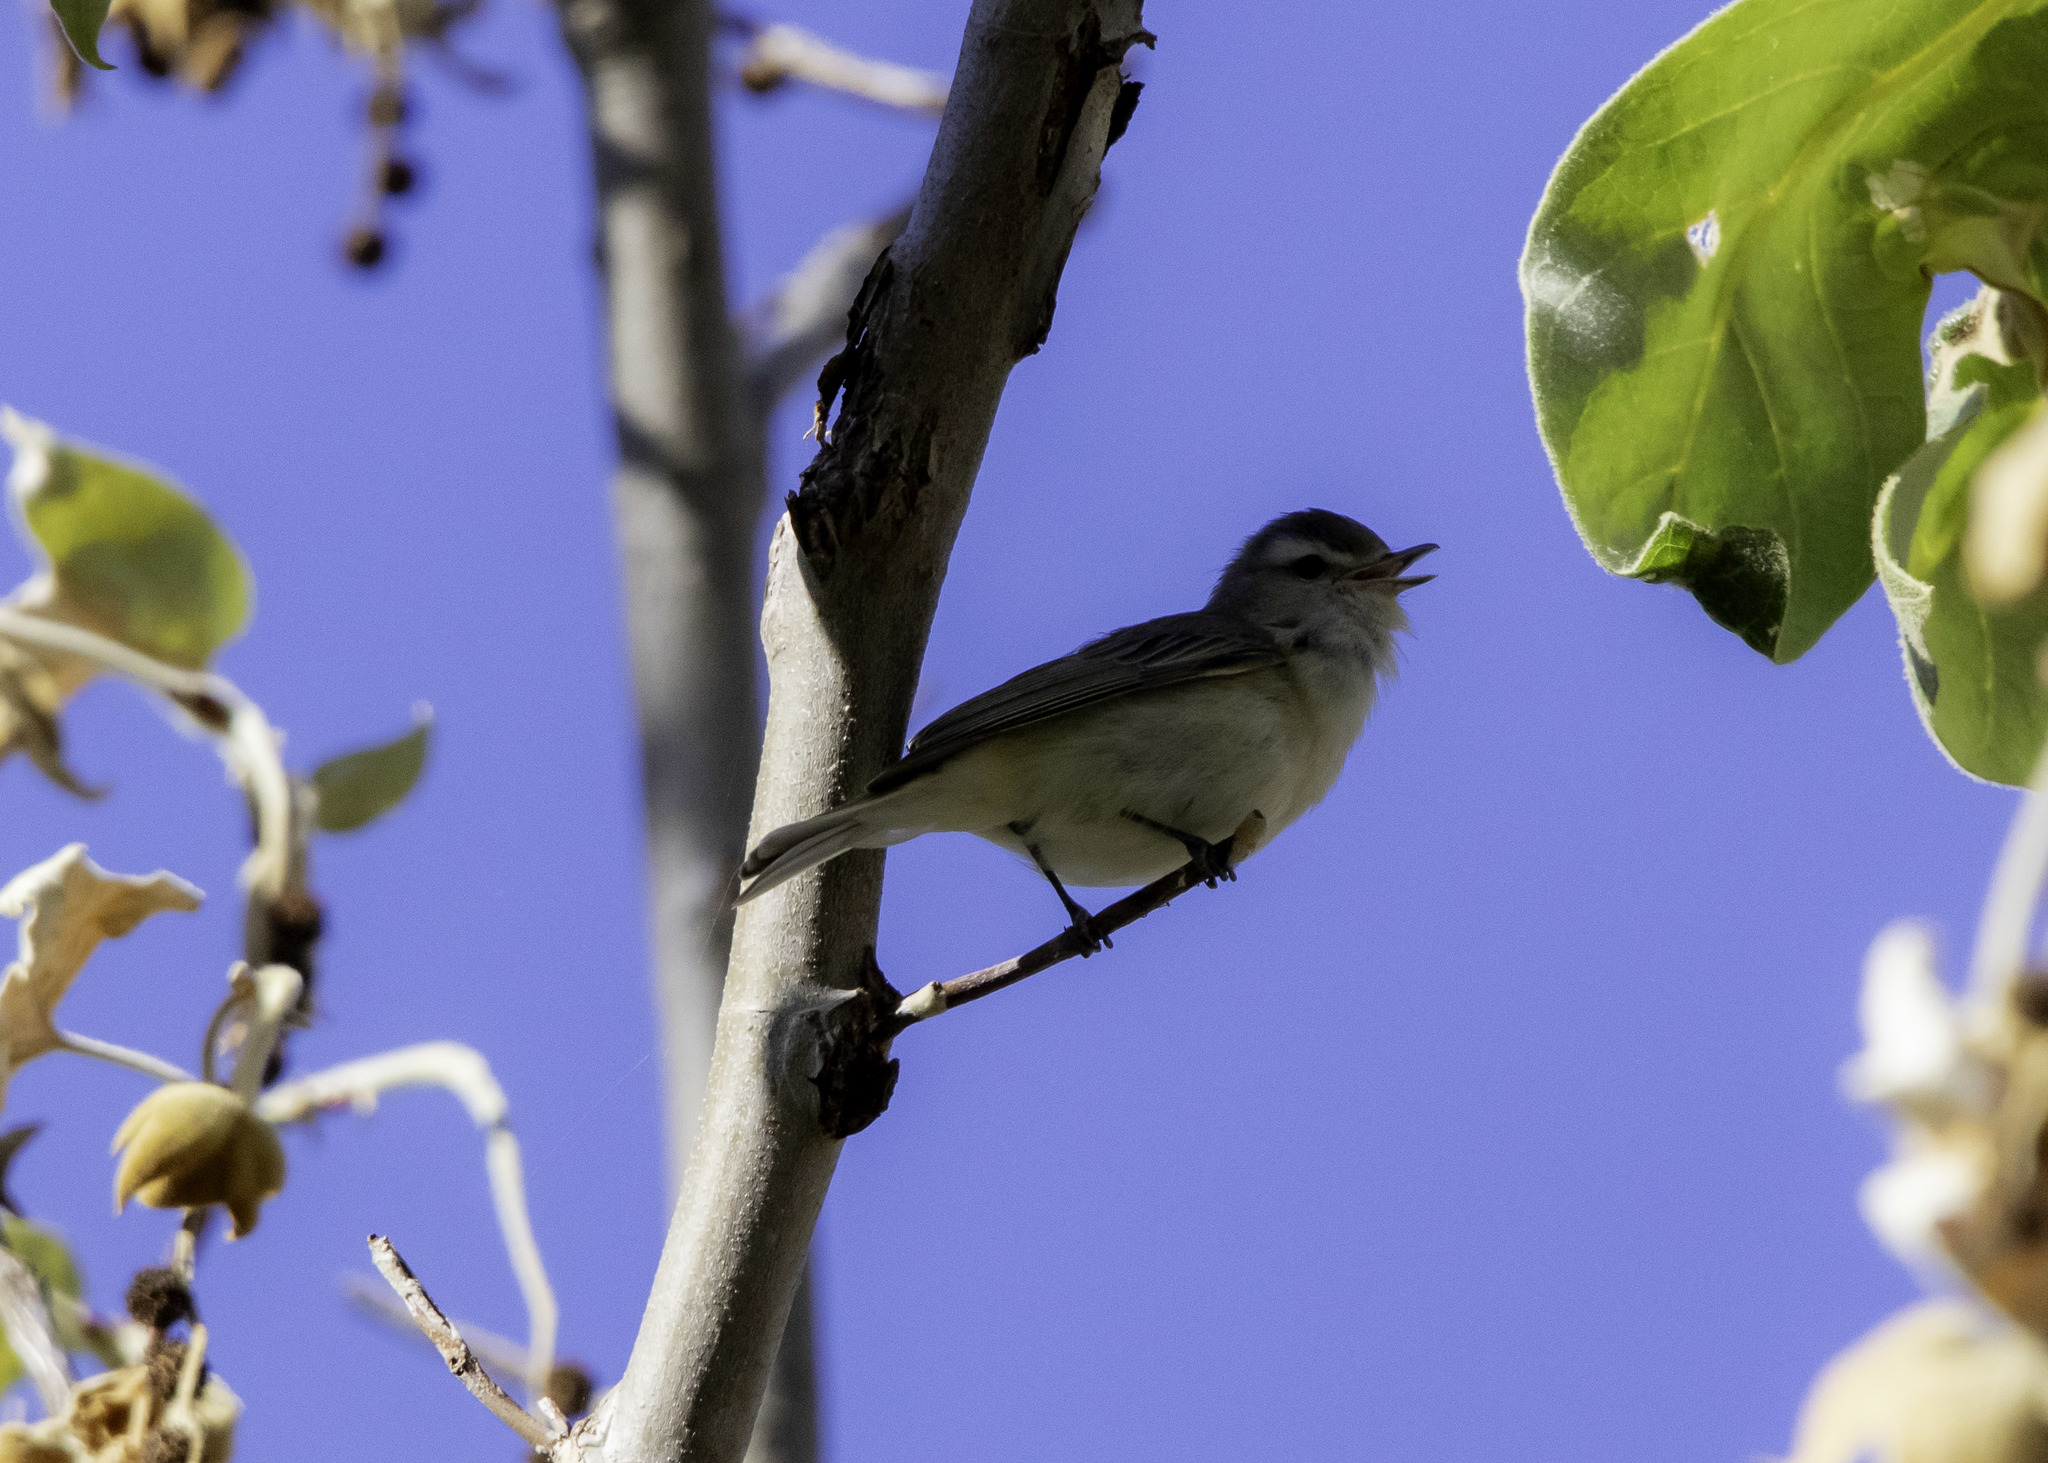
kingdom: Animalia
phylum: Chordata
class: Aves
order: Passeriformes
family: Vireonidae
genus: Vireo
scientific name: Vireo gilvus
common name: Warbling vireo
